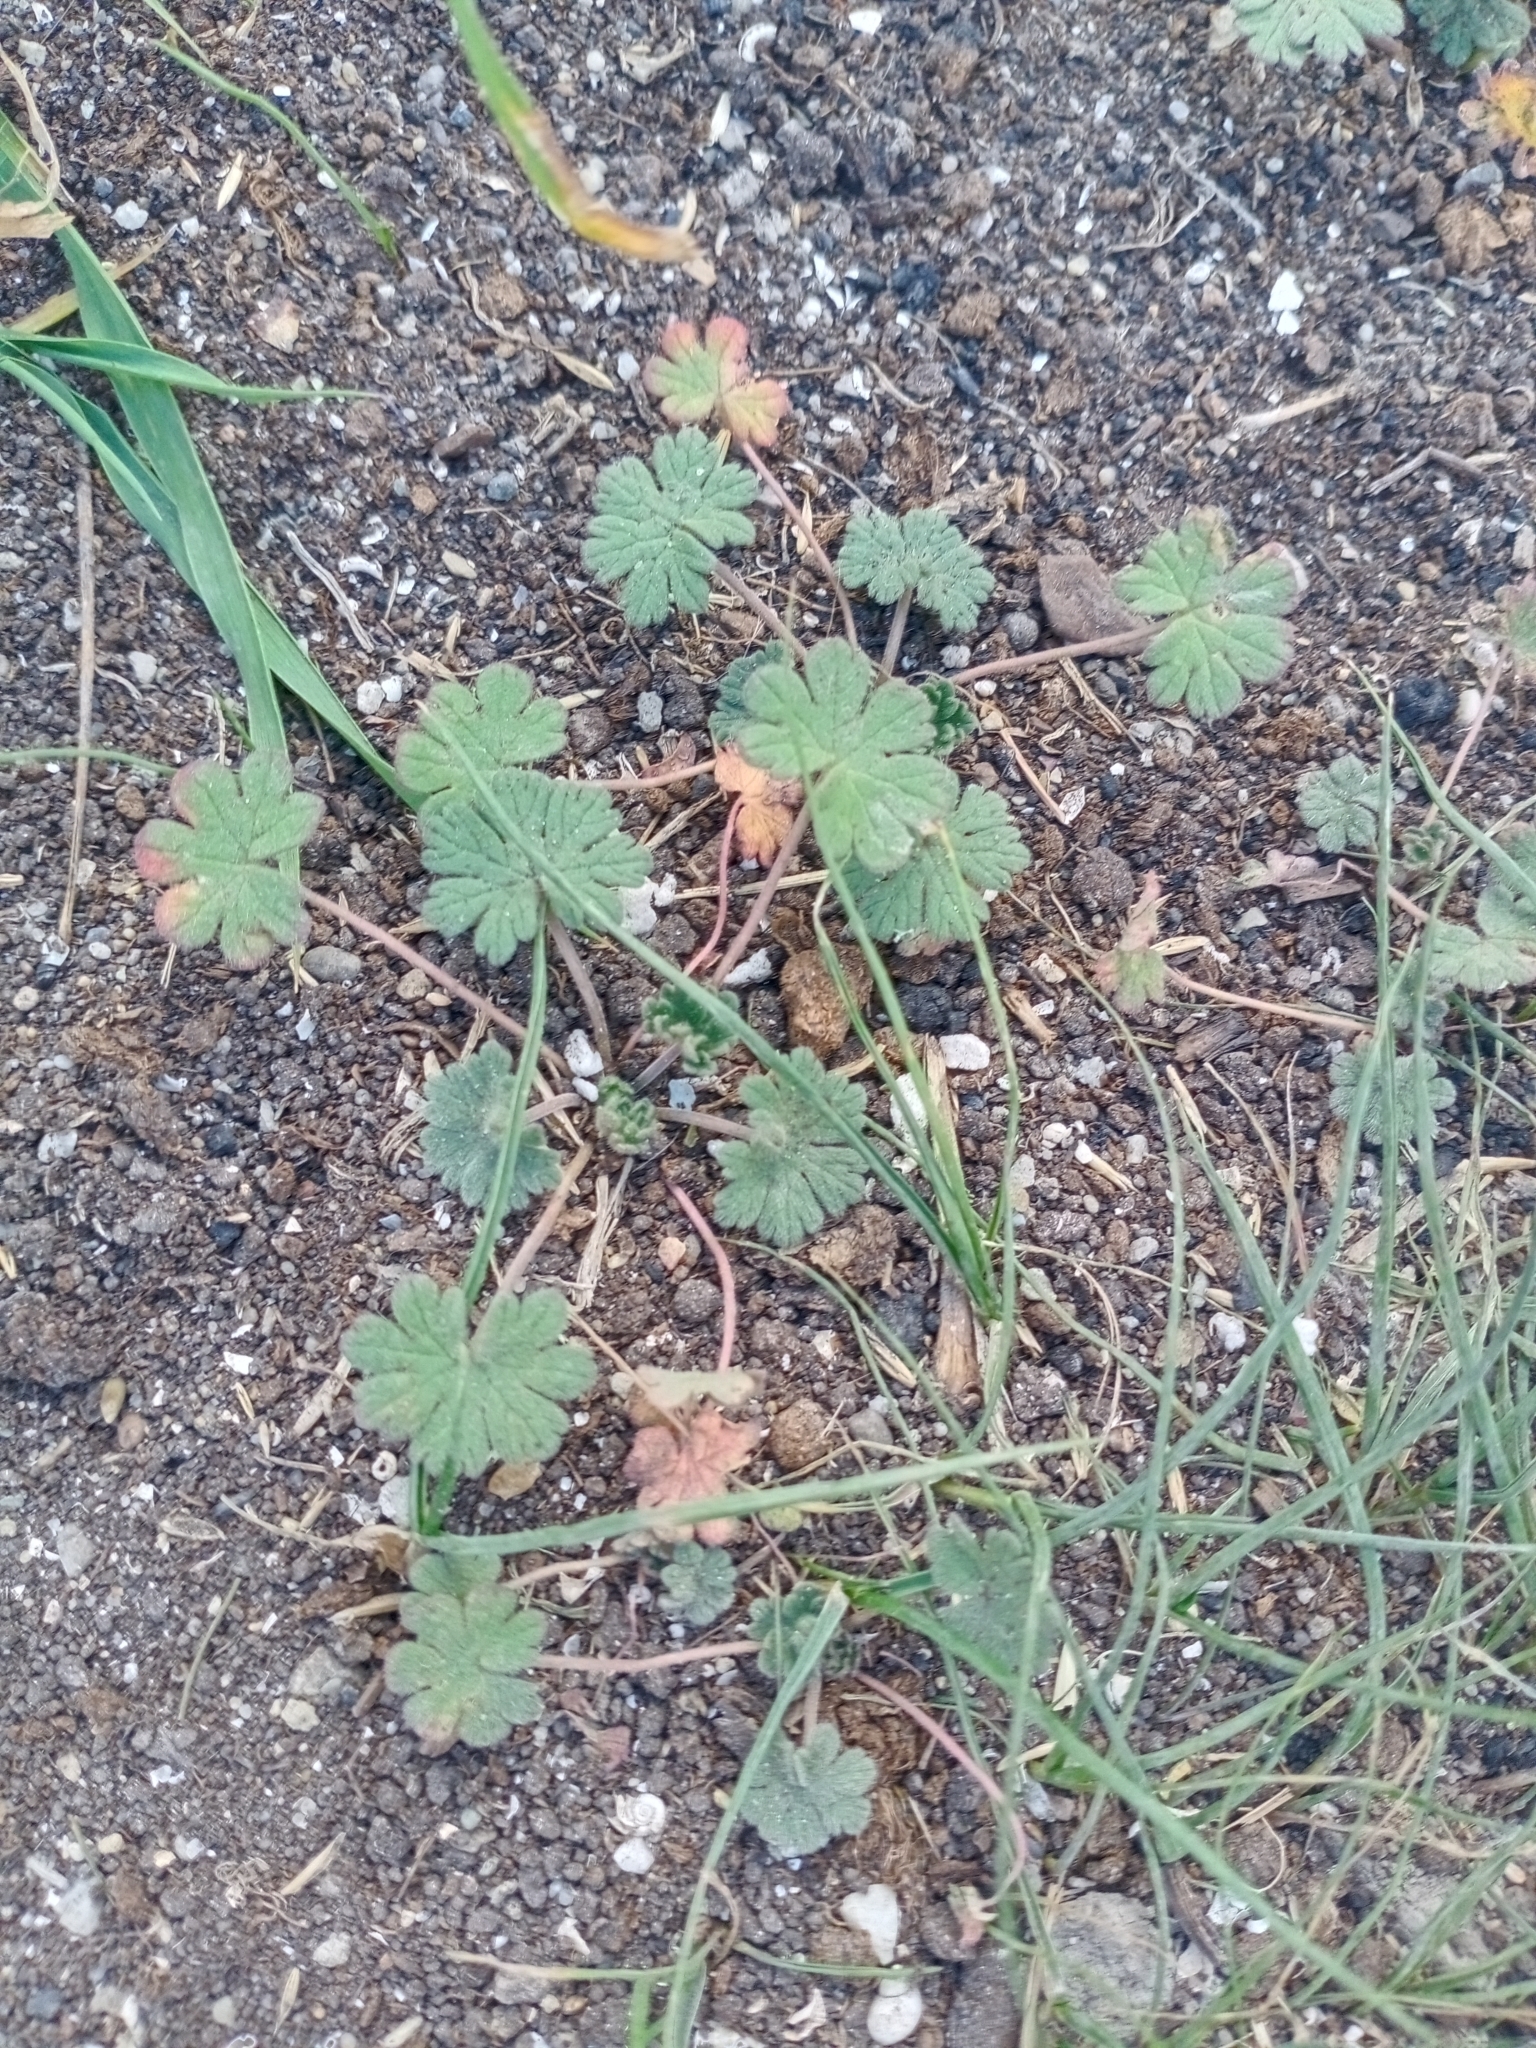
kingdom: Plantae
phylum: Tracheophyta
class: Magnoliopsida
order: Geraniales
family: Geraniaceae
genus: Geranium
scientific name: Geranium pusillum
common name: Small geranium
